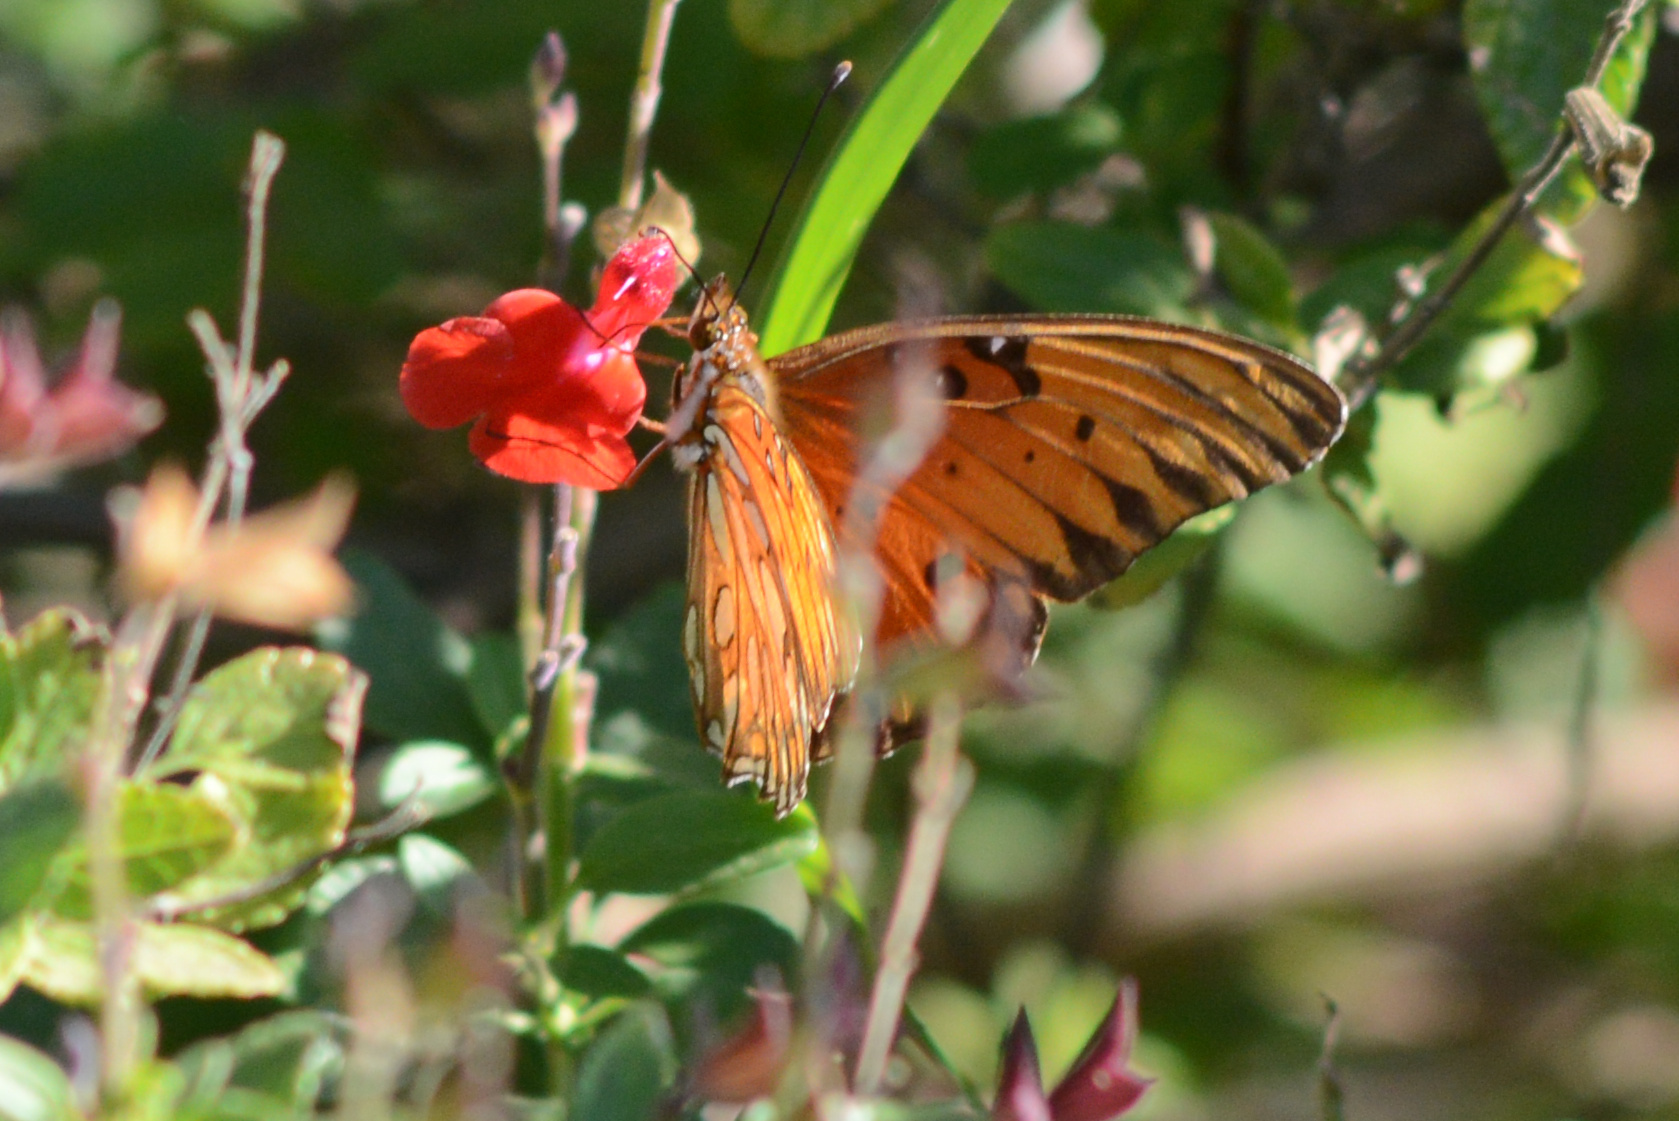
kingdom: Animalia
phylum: Arthropoda
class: Insecta
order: Lepidoptera
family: Nymphalidae
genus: Dione
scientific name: Dione vanillae
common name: Gulf fritillary
